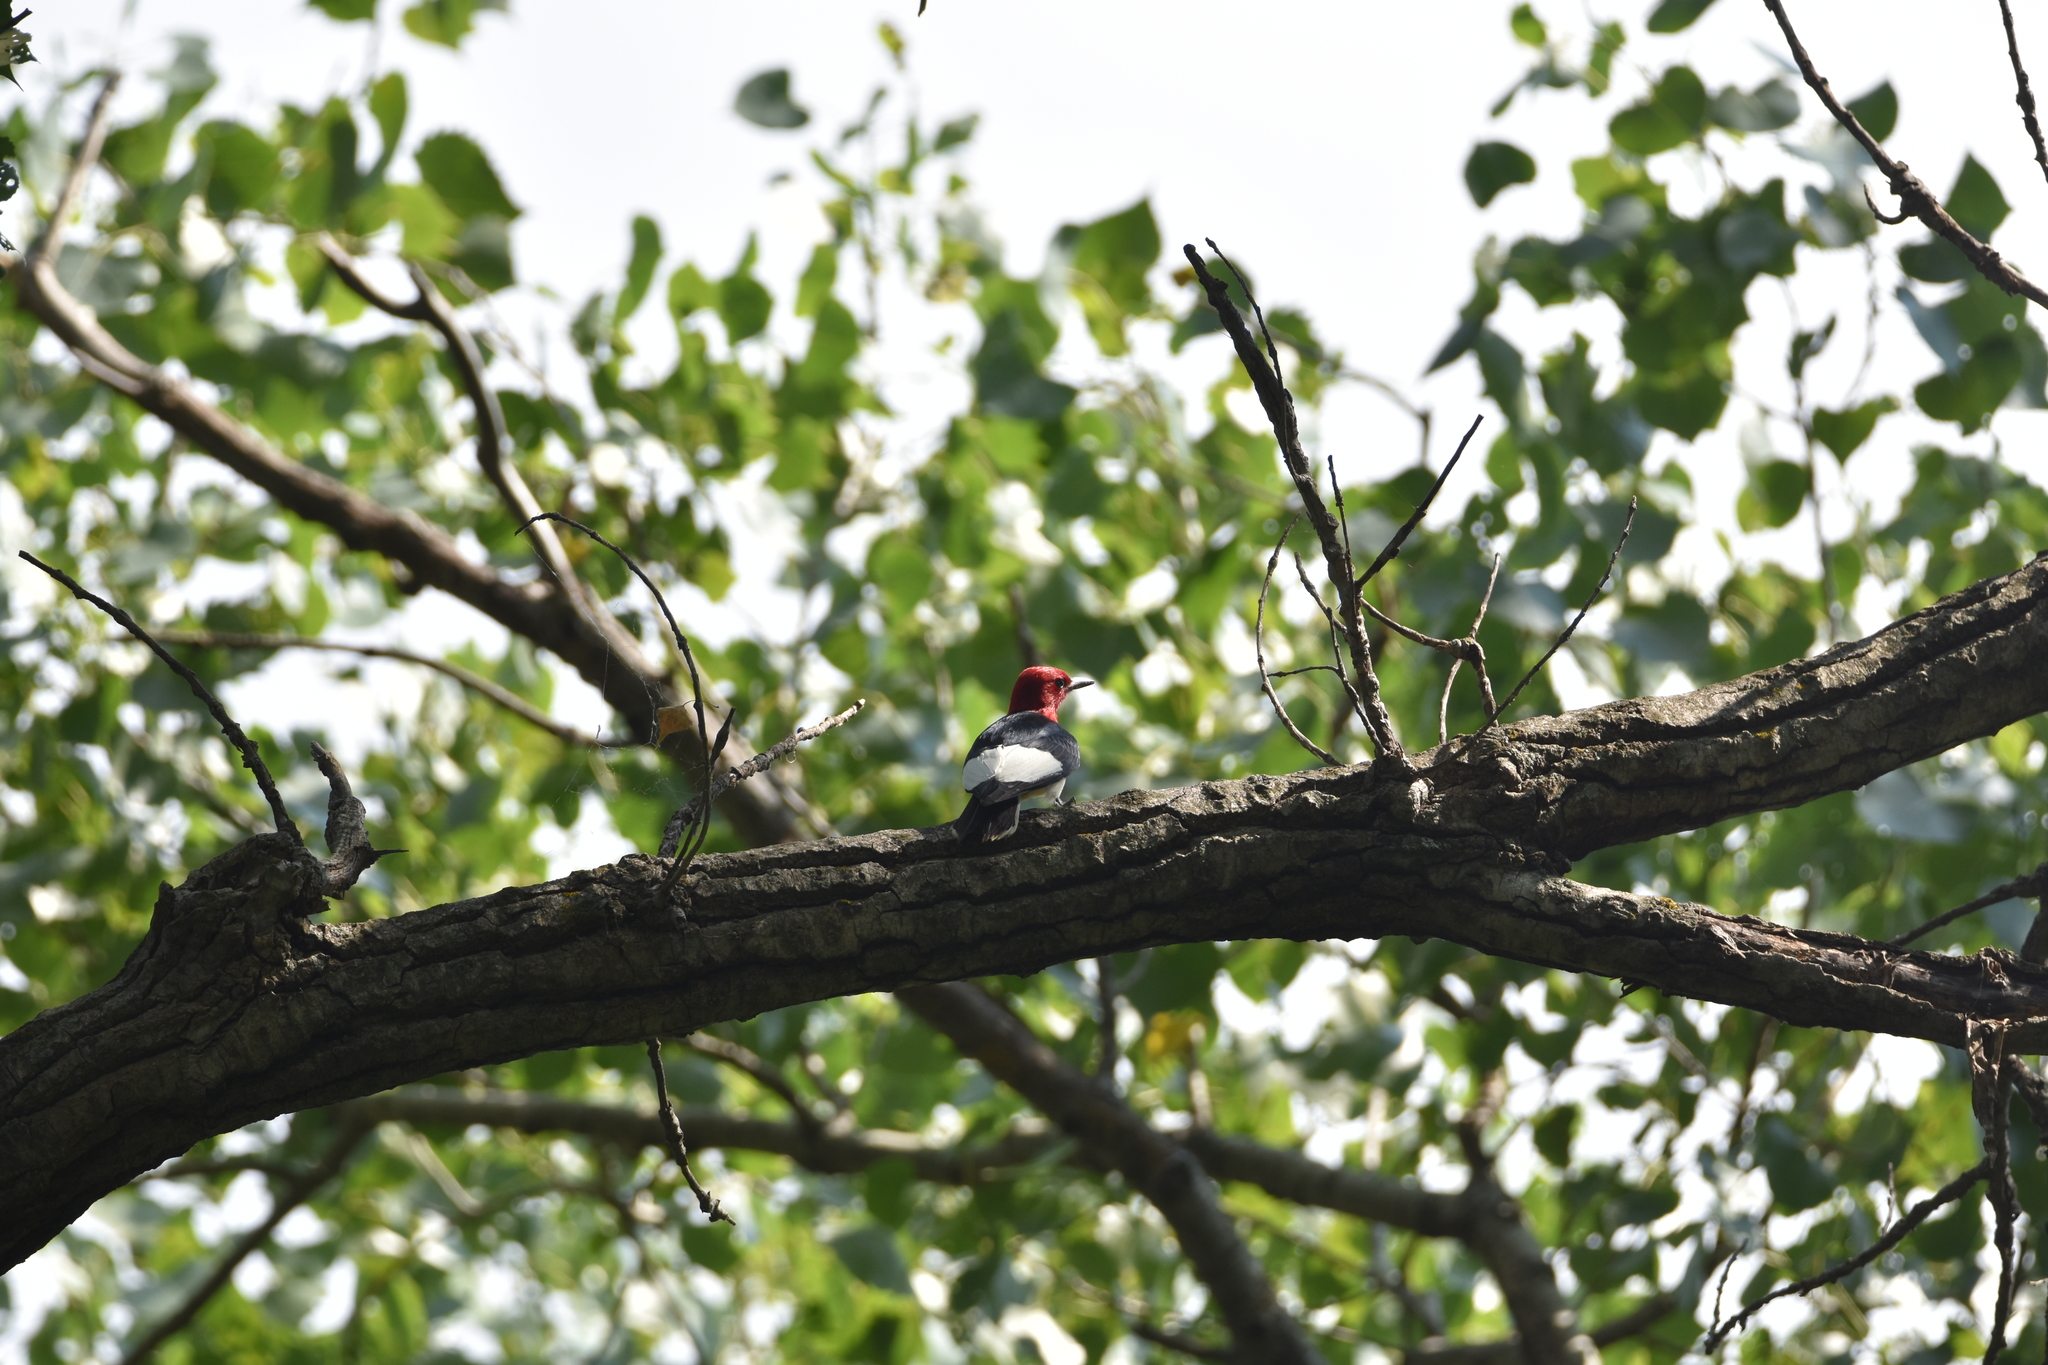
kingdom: Animalia
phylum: Chordata
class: Aves
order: Piciformes
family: Picidae
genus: Melanerpes
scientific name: Melanerpes erythrocephalus
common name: Red-headed woodpecker
